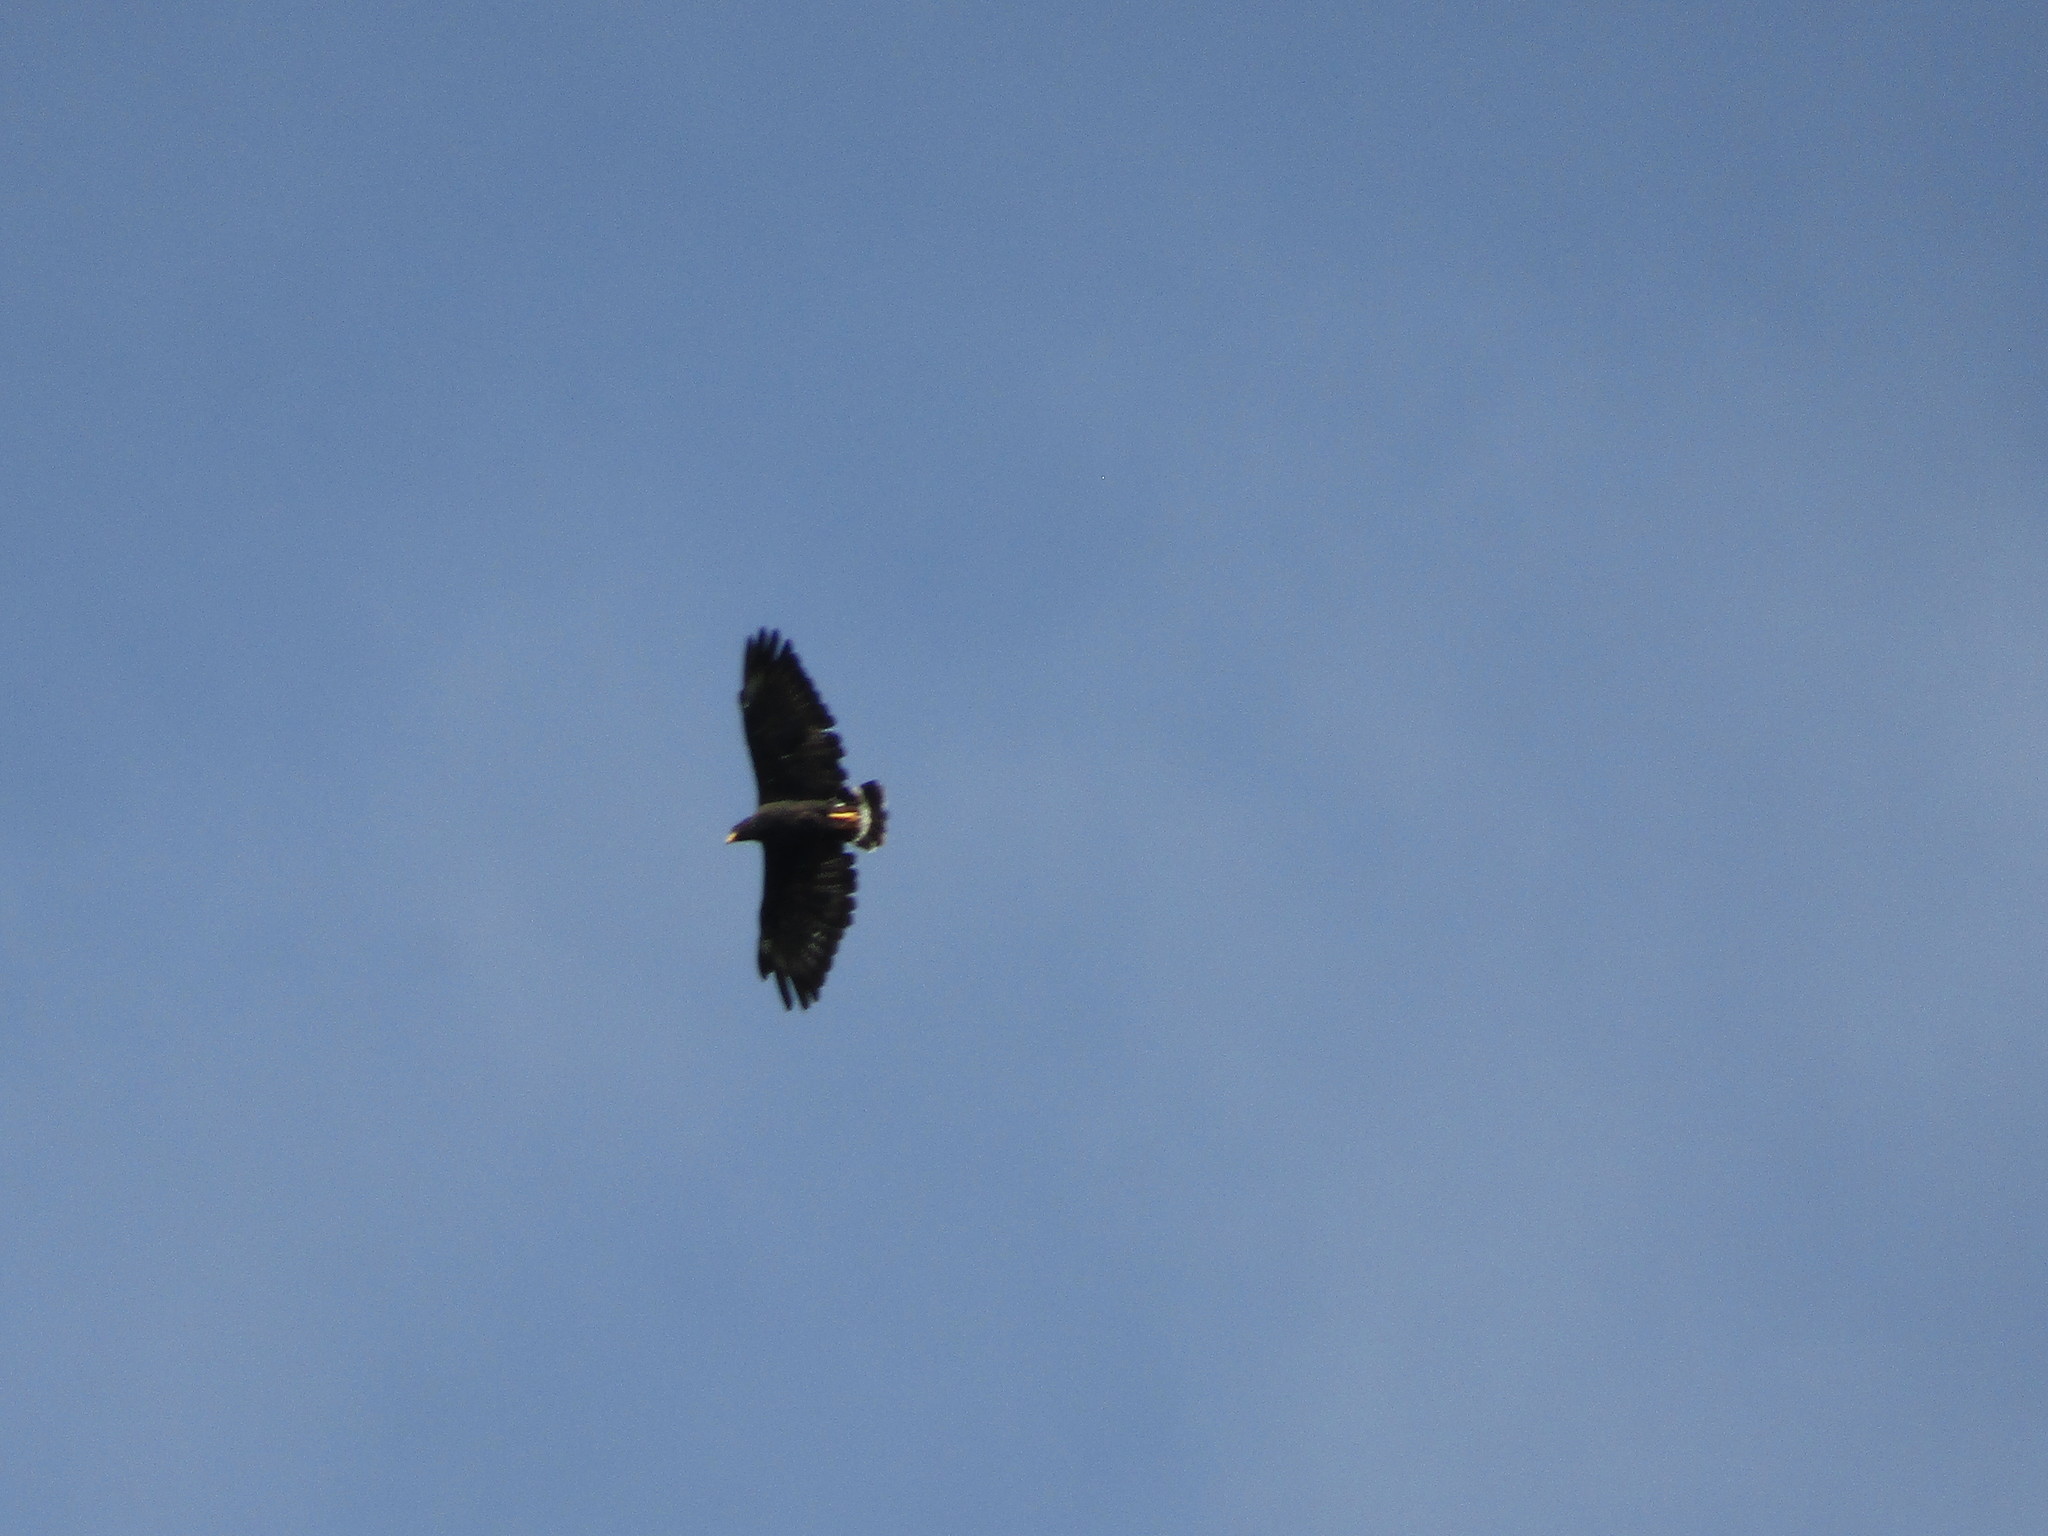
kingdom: Animalia
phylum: Chordata
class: Aves
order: Accipitriformes
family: Accipitridae
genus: Buteogallus
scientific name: Buteogallus anthracinus
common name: Common black hawk
